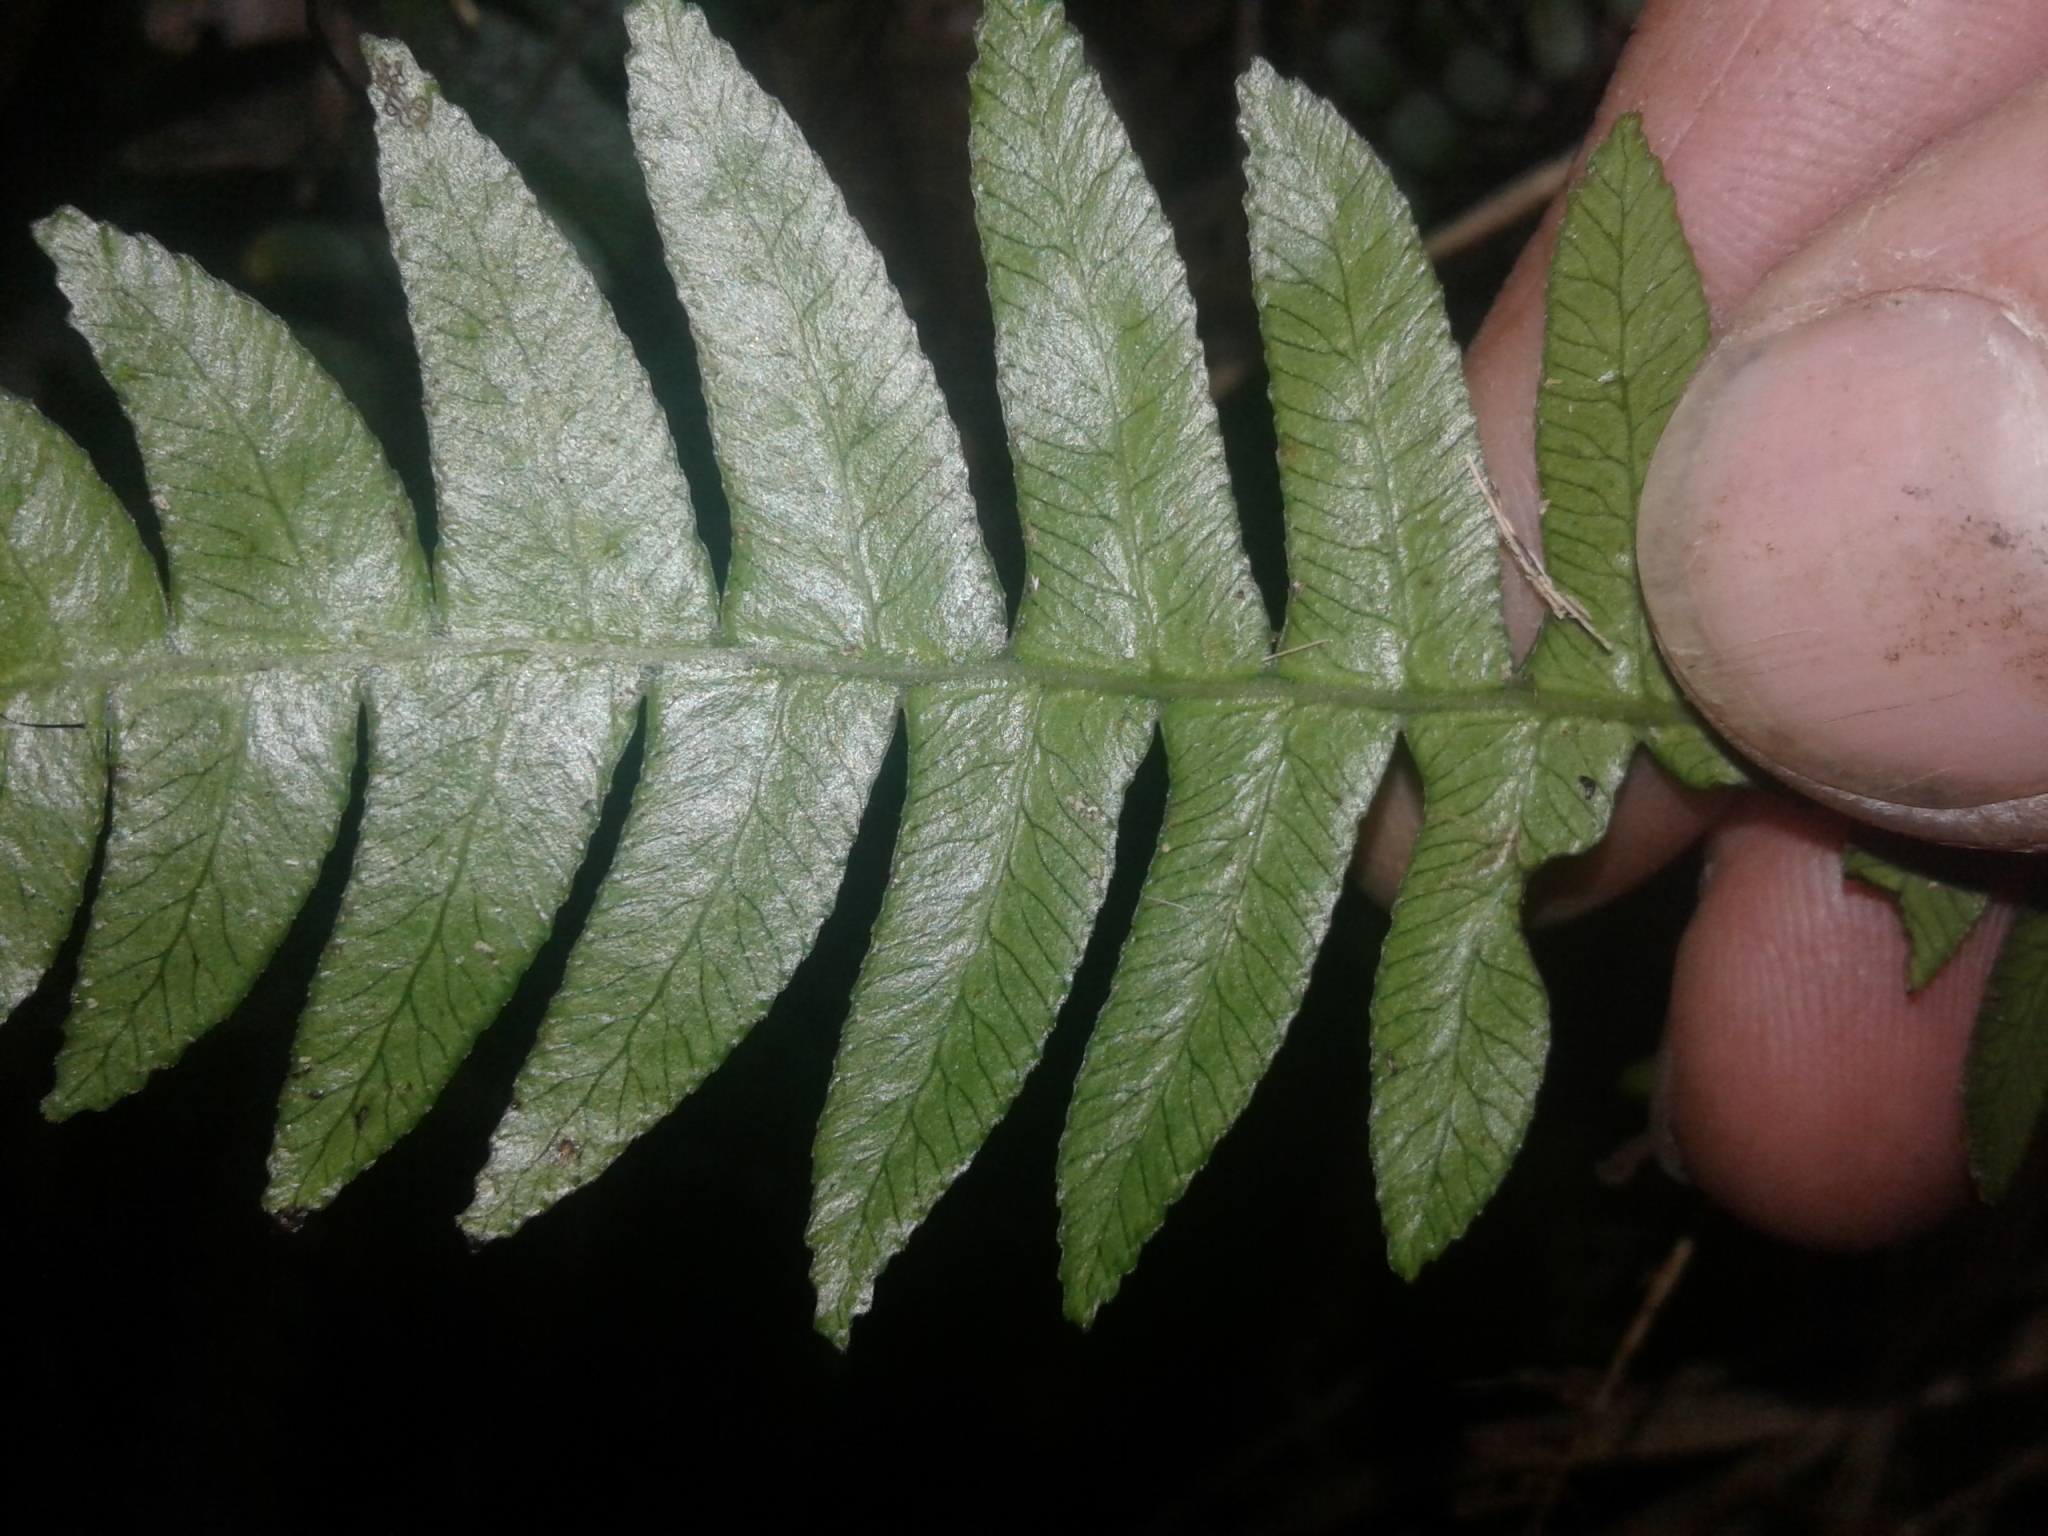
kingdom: Plantae
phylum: Tracheophyta
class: Polypodiopsida
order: Polypodiales
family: Blechnaceae
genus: Austroblechnum
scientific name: Austroblechnum lanceolatum
